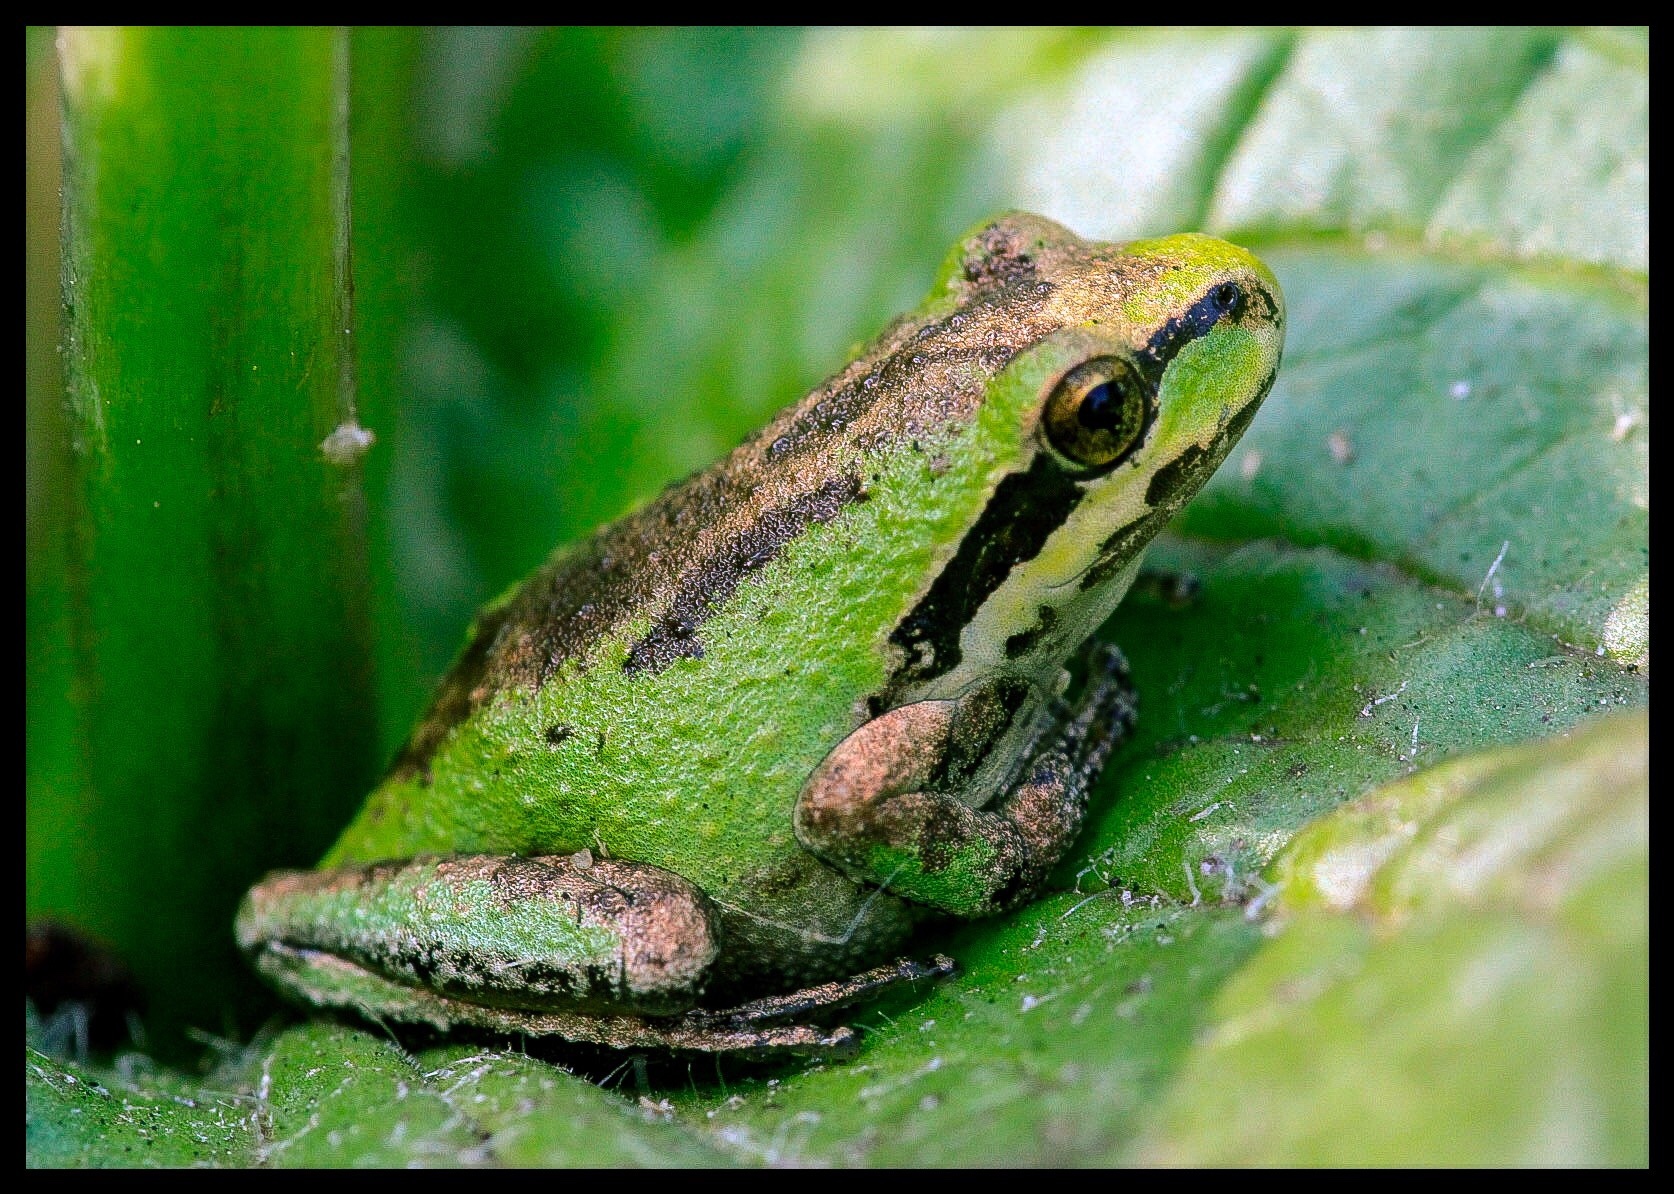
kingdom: Animalia
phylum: Chordata
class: Amphibia
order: Anura
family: Hylidae
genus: Pseudacris
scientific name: Pseudacris regilla
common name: Pacific chorus frog
